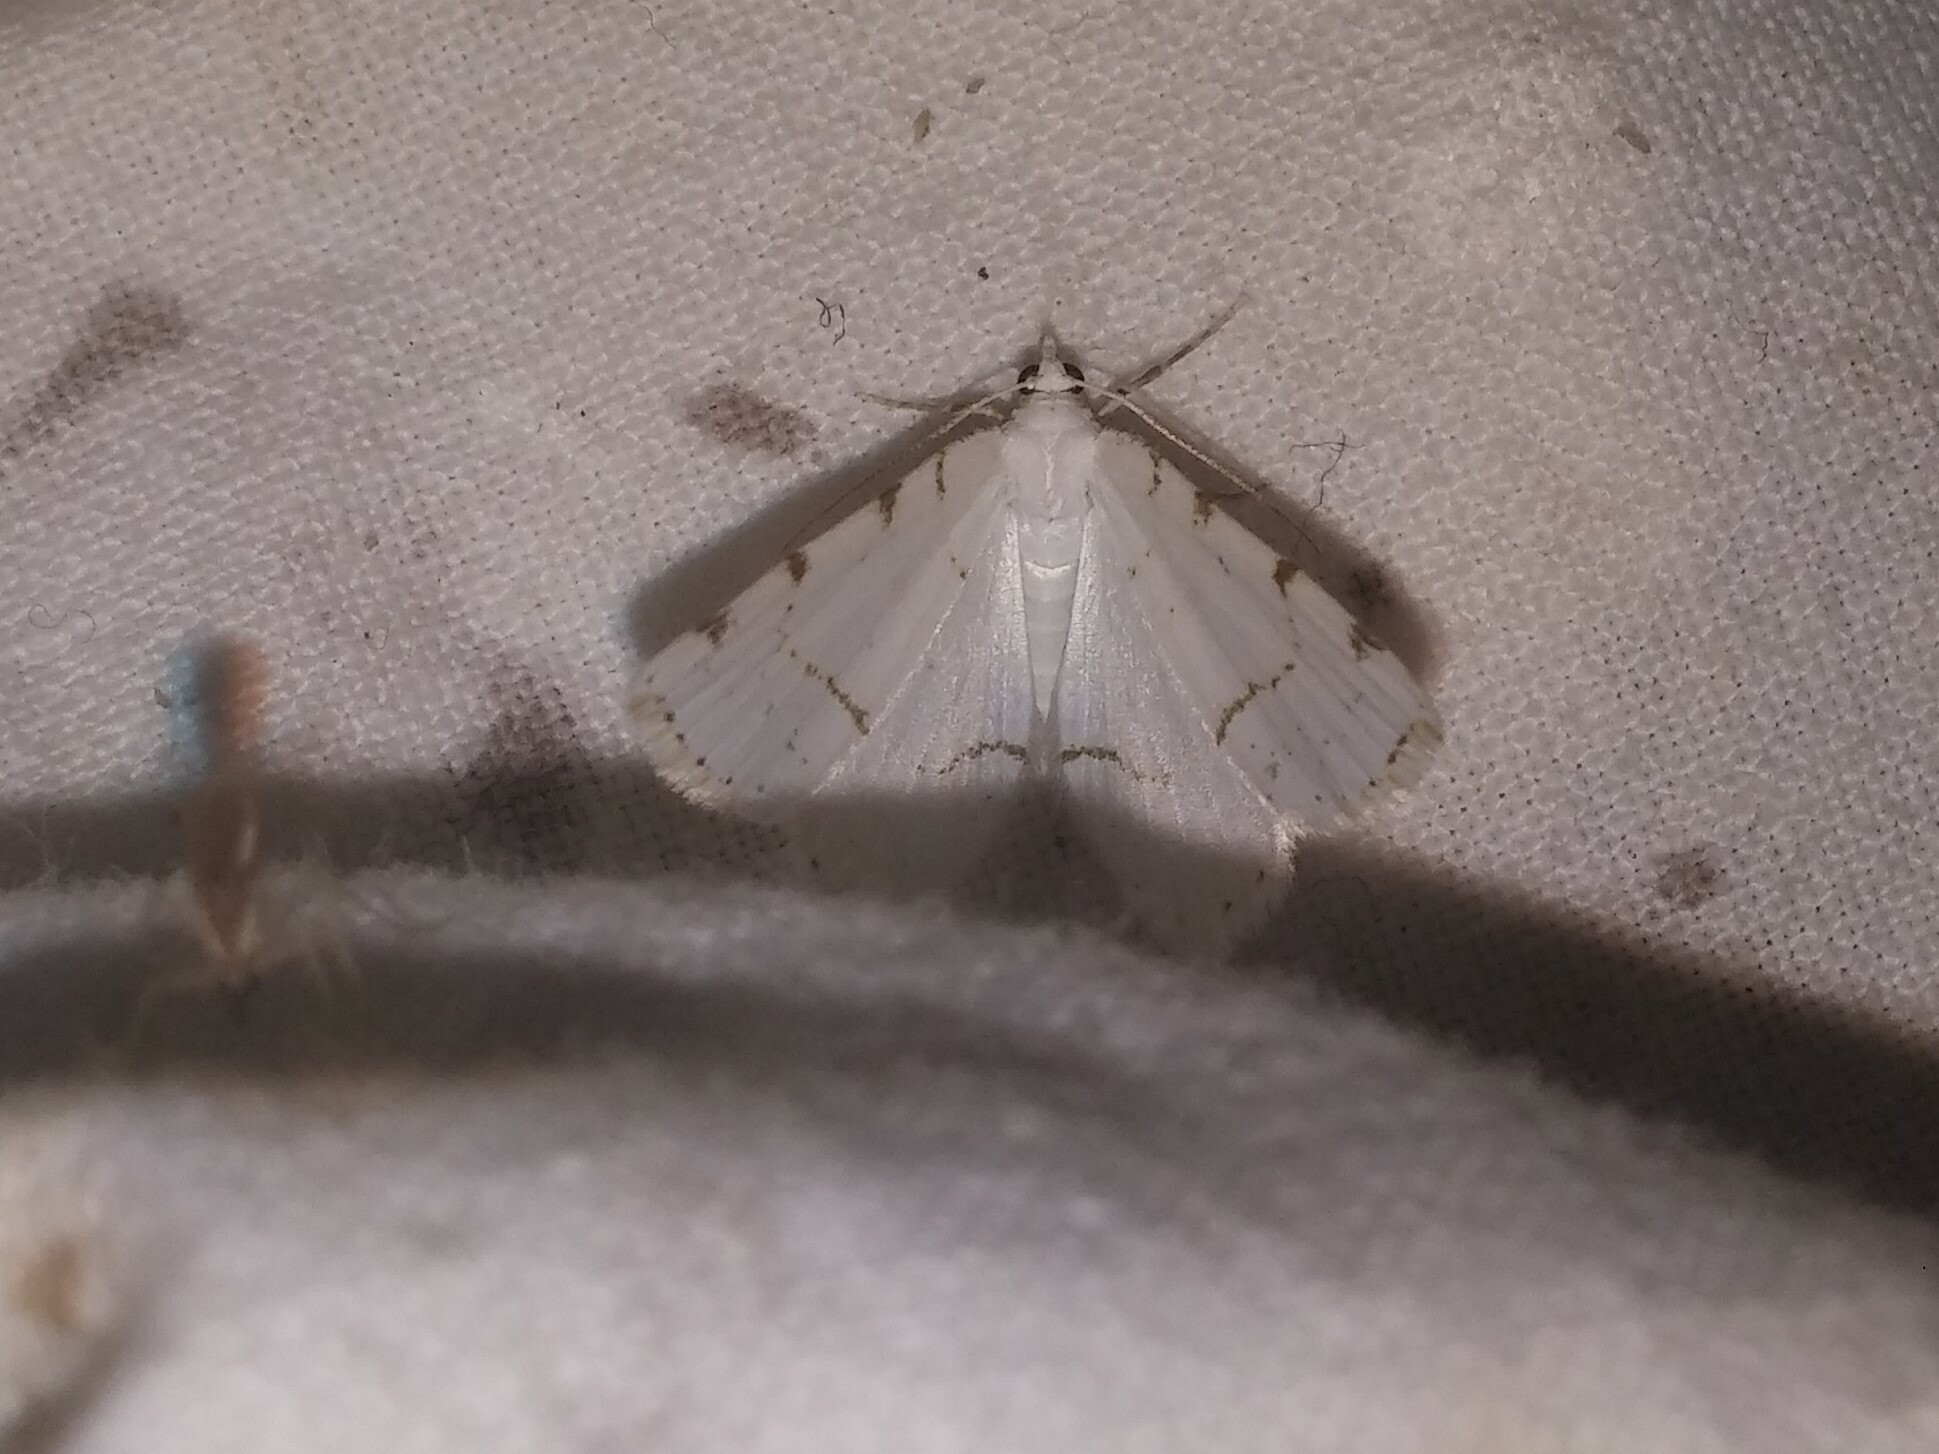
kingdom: Animalia
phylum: Arthropoda
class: Insecta
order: Lepidoptera
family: Geometridae
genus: Macaria
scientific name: Macaria pustularia
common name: Lesser maple spanworm moth
